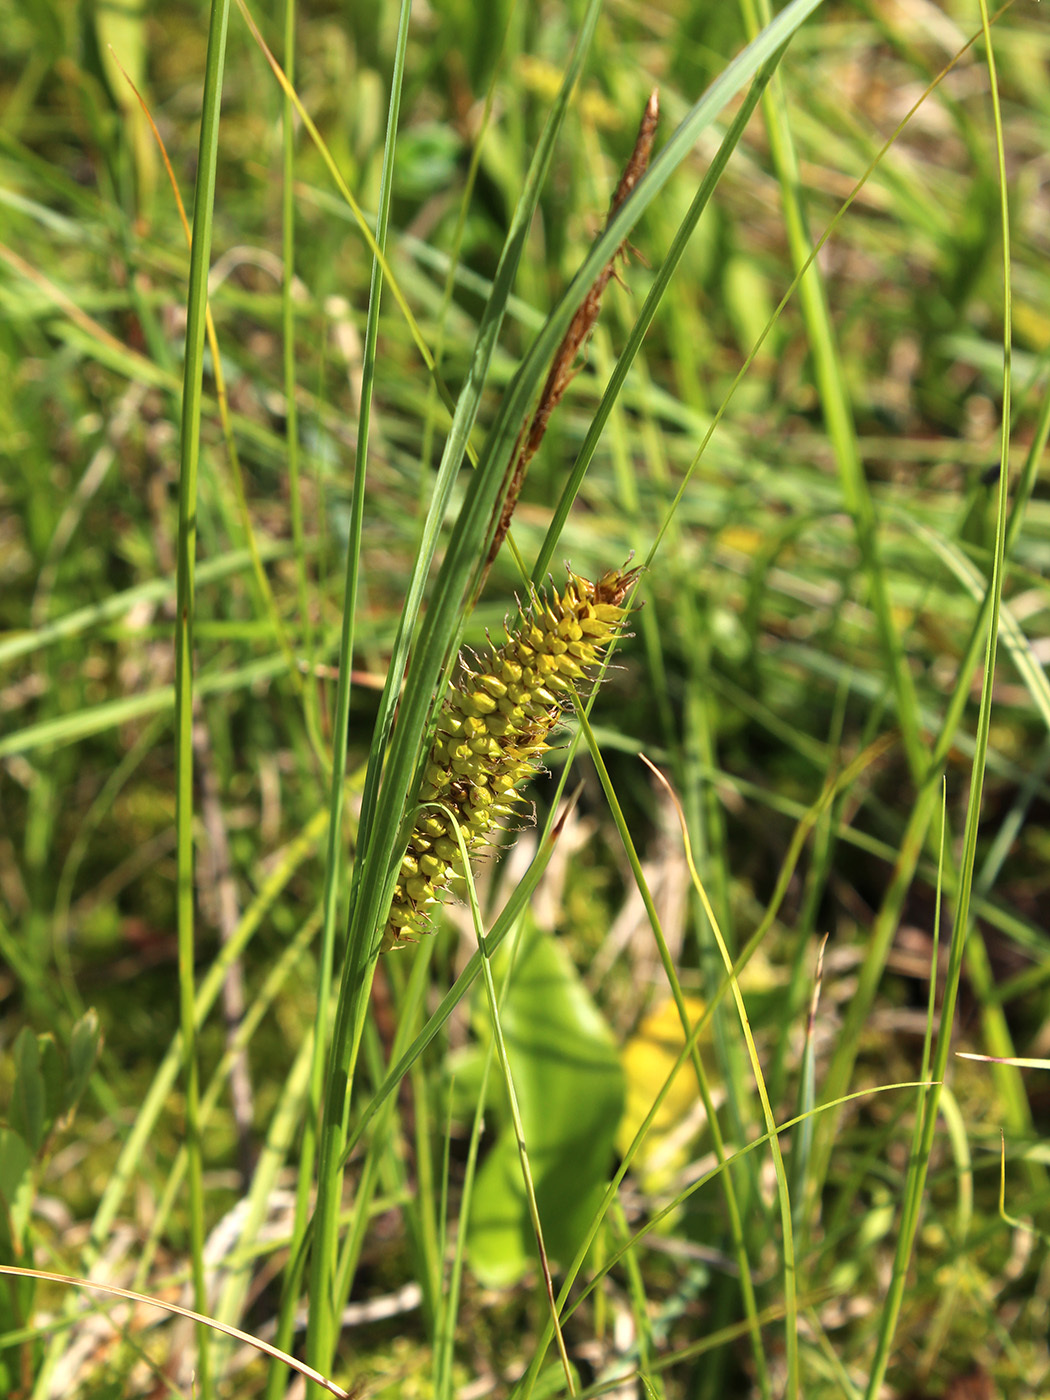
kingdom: Plantae
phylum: Tracheophyta
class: Liliopsida
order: Poales
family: Cyperaceae
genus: Carex
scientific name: Carex rostrata
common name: Bottle sedge
